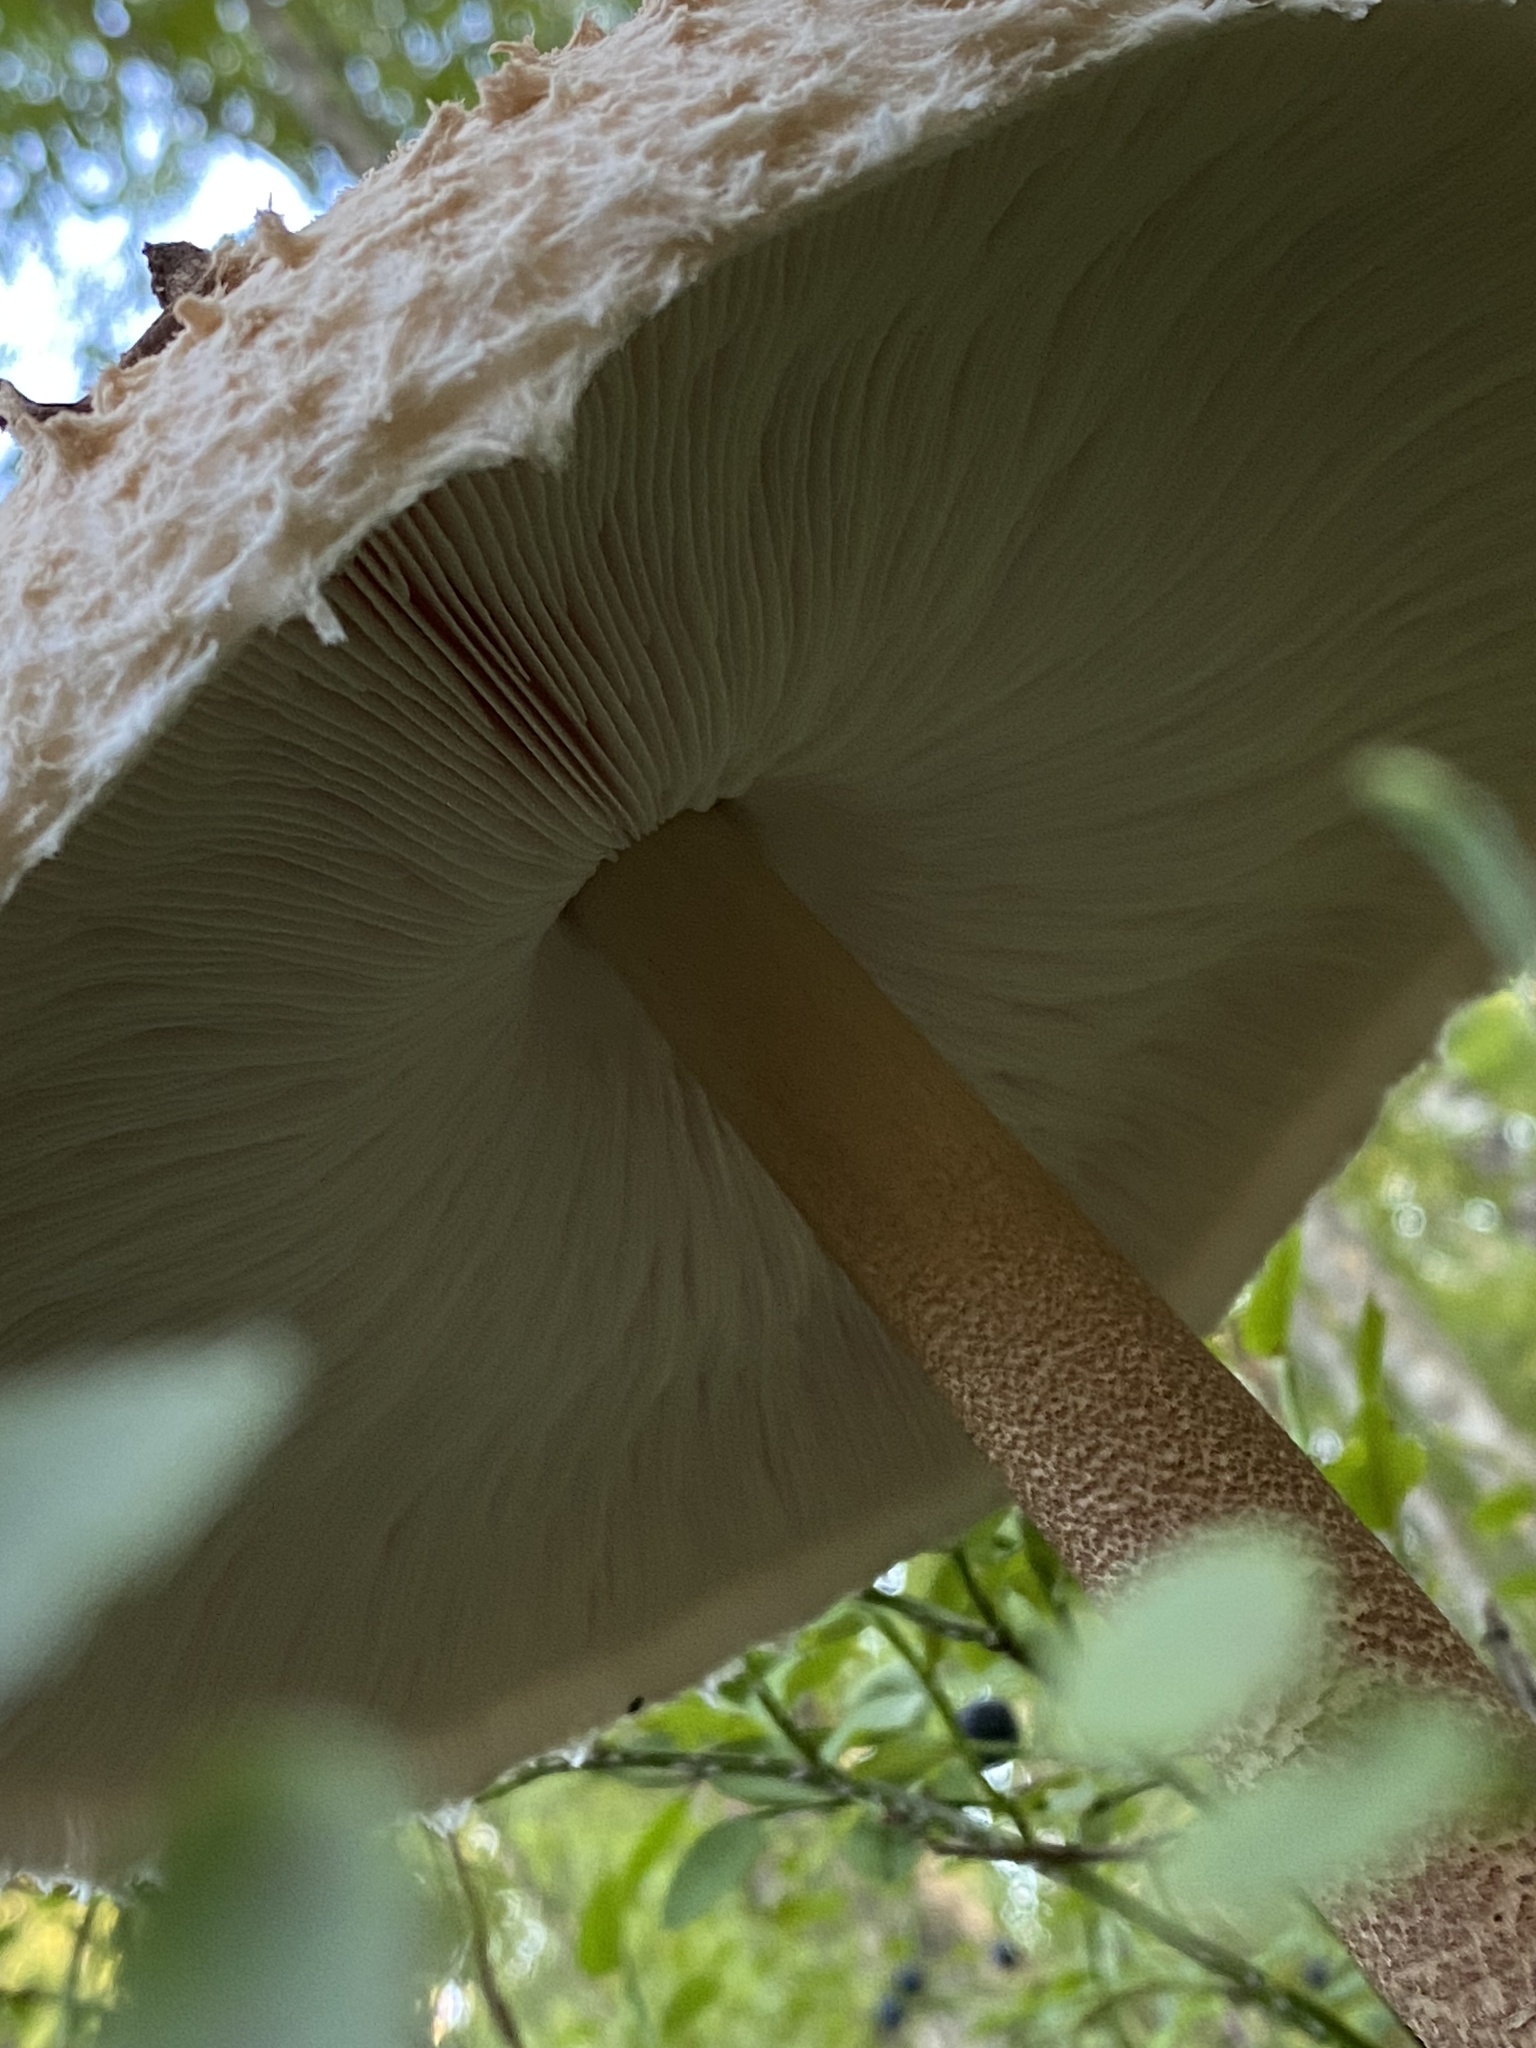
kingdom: Fungi
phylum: Basidiomycota
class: Agaricomycetes
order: Agaricales
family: Agaricaceae
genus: Macrolepiota
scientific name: Macrolepiota procera
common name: Parasol
